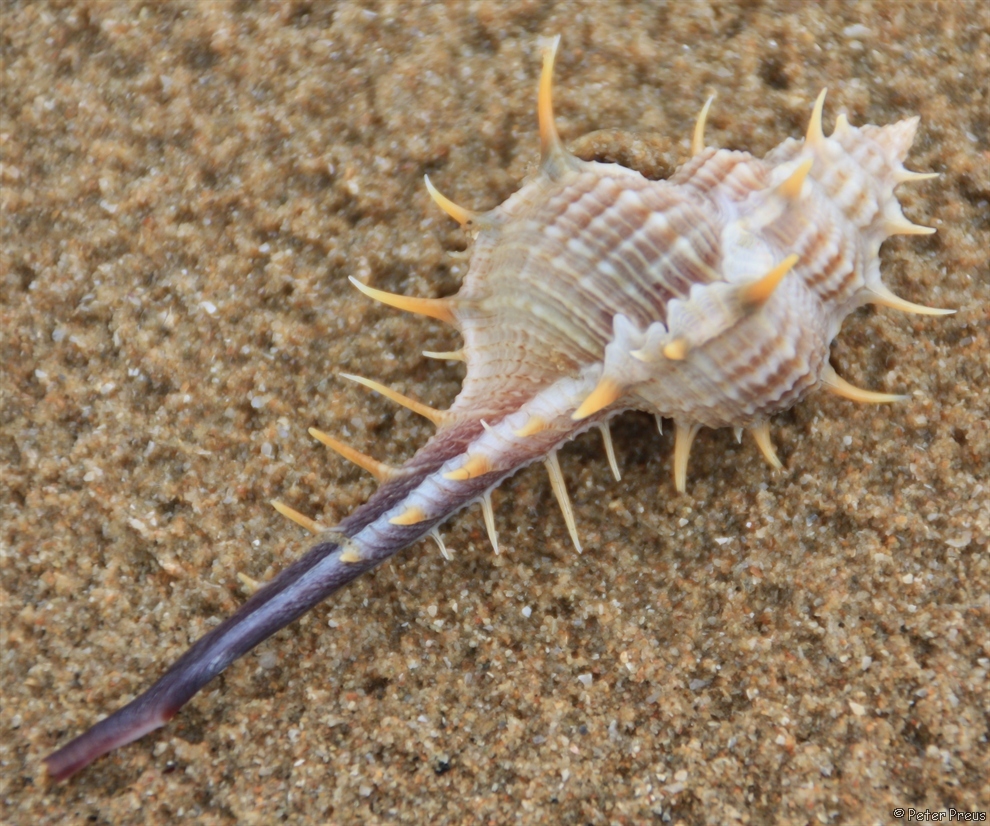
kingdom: Animalia
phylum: Mollusca
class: Gastropoda
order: Neogastropoda
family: Muricidae
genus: Murex
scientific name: Murex trapa
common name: Rare spined murex
